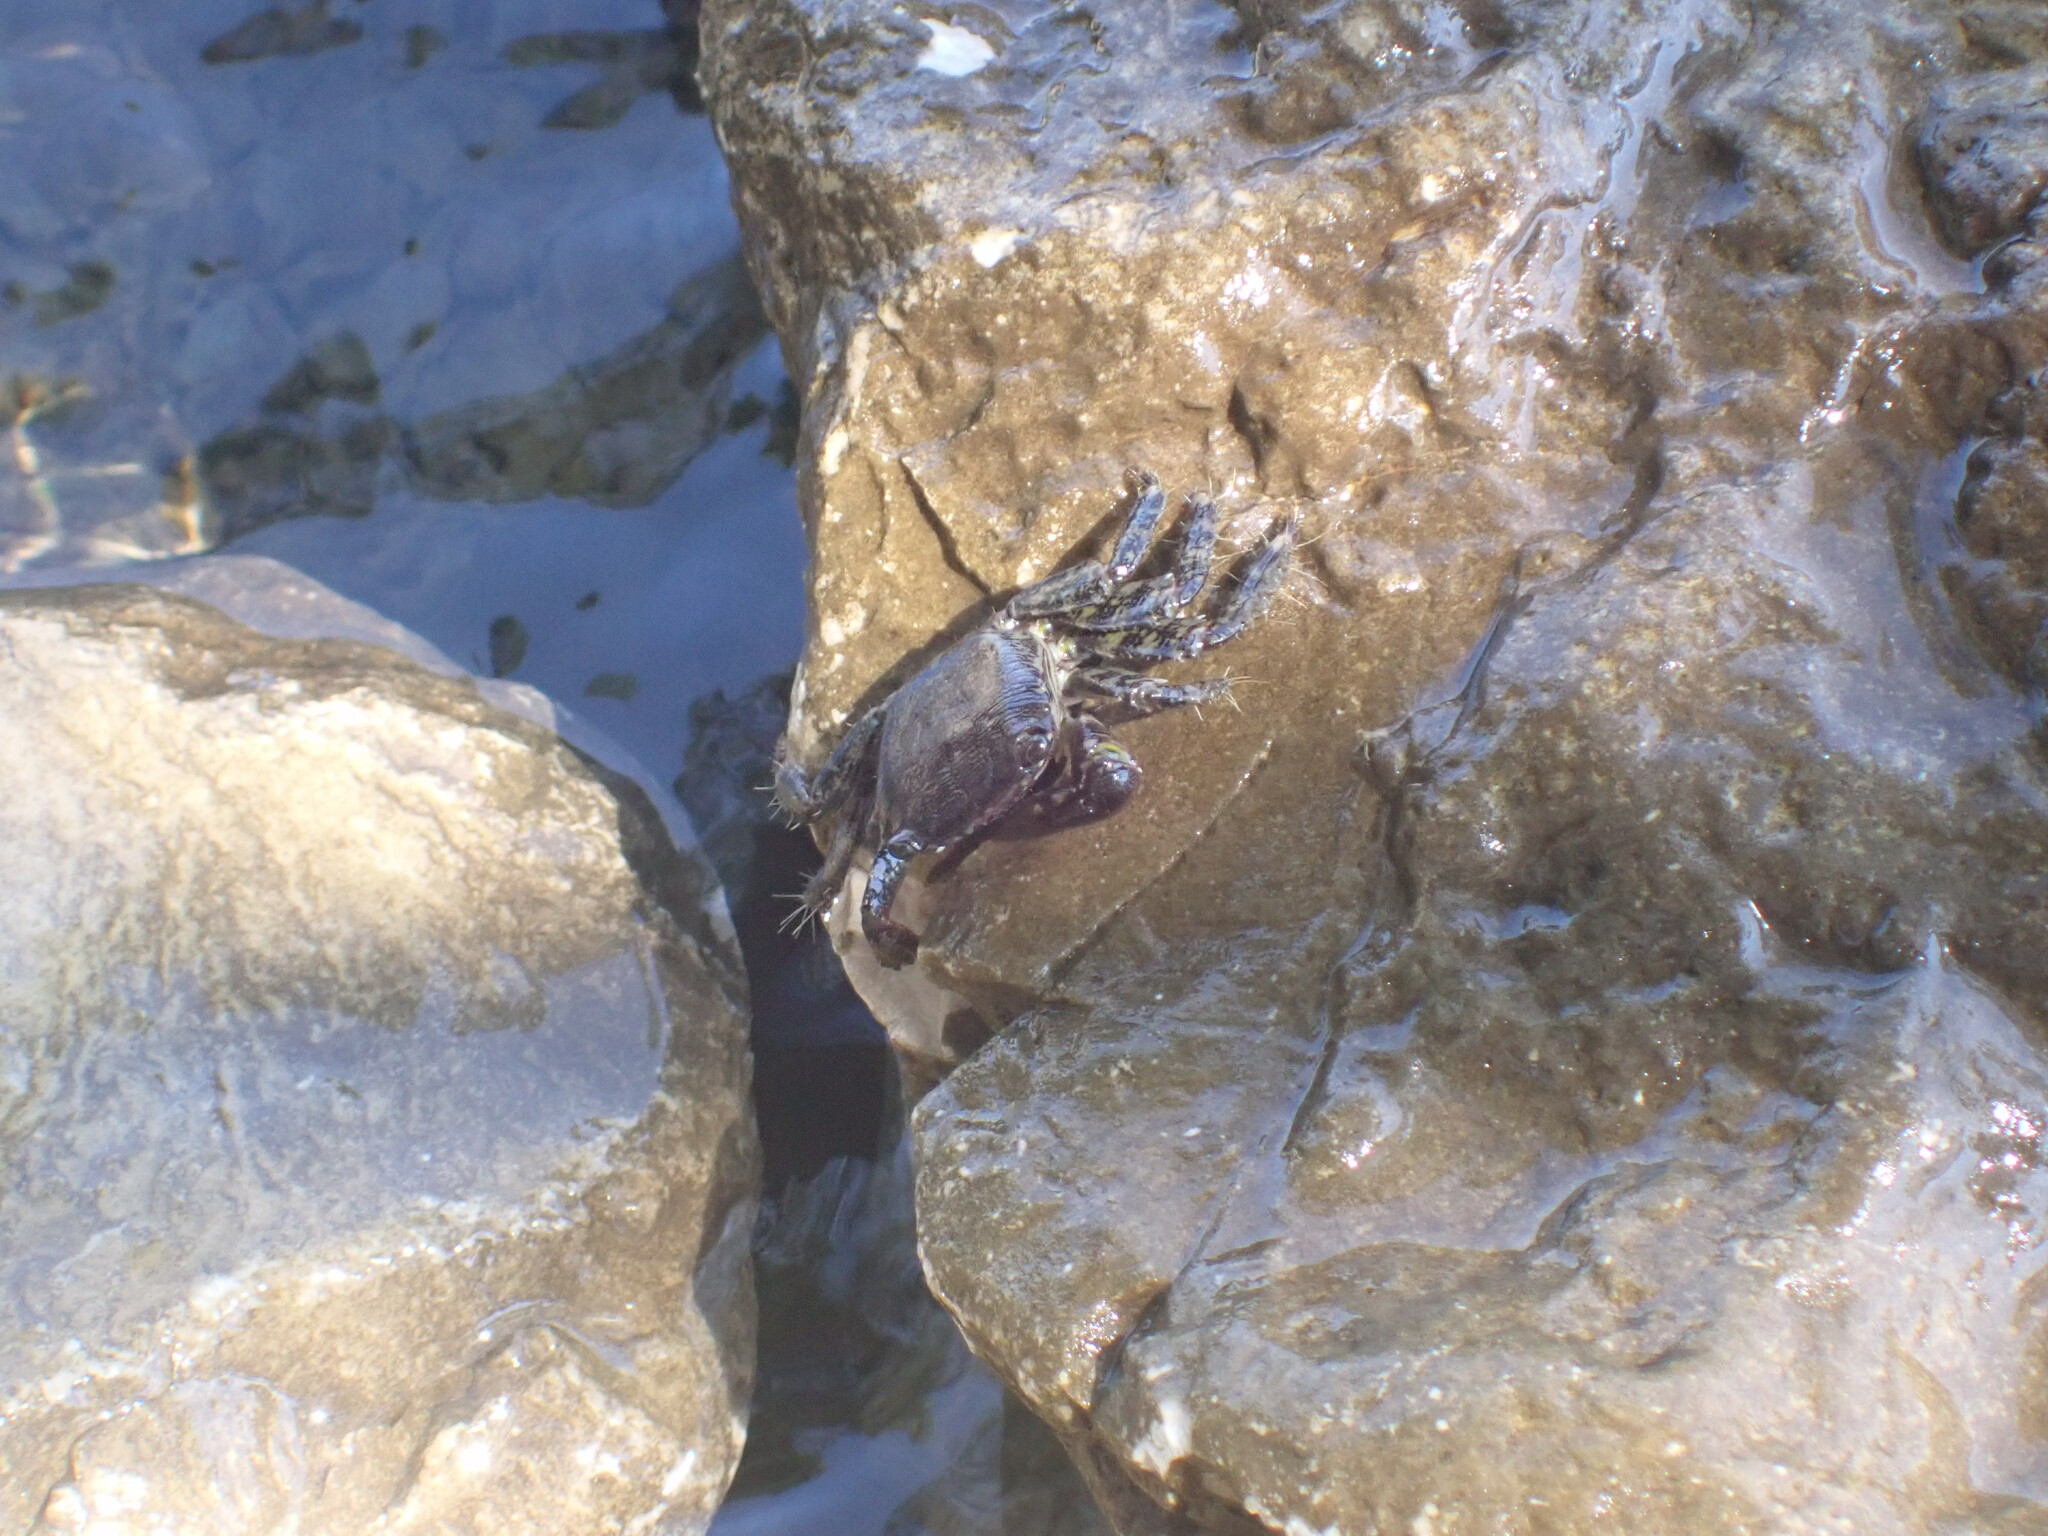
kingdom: Animalia
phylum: Arthropoda
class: Malacostraca
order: Decapoda
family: Grapsidae
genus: Pachygrapsus
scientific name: Pachygrapsus marmoratus
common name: Marbled rock crab
